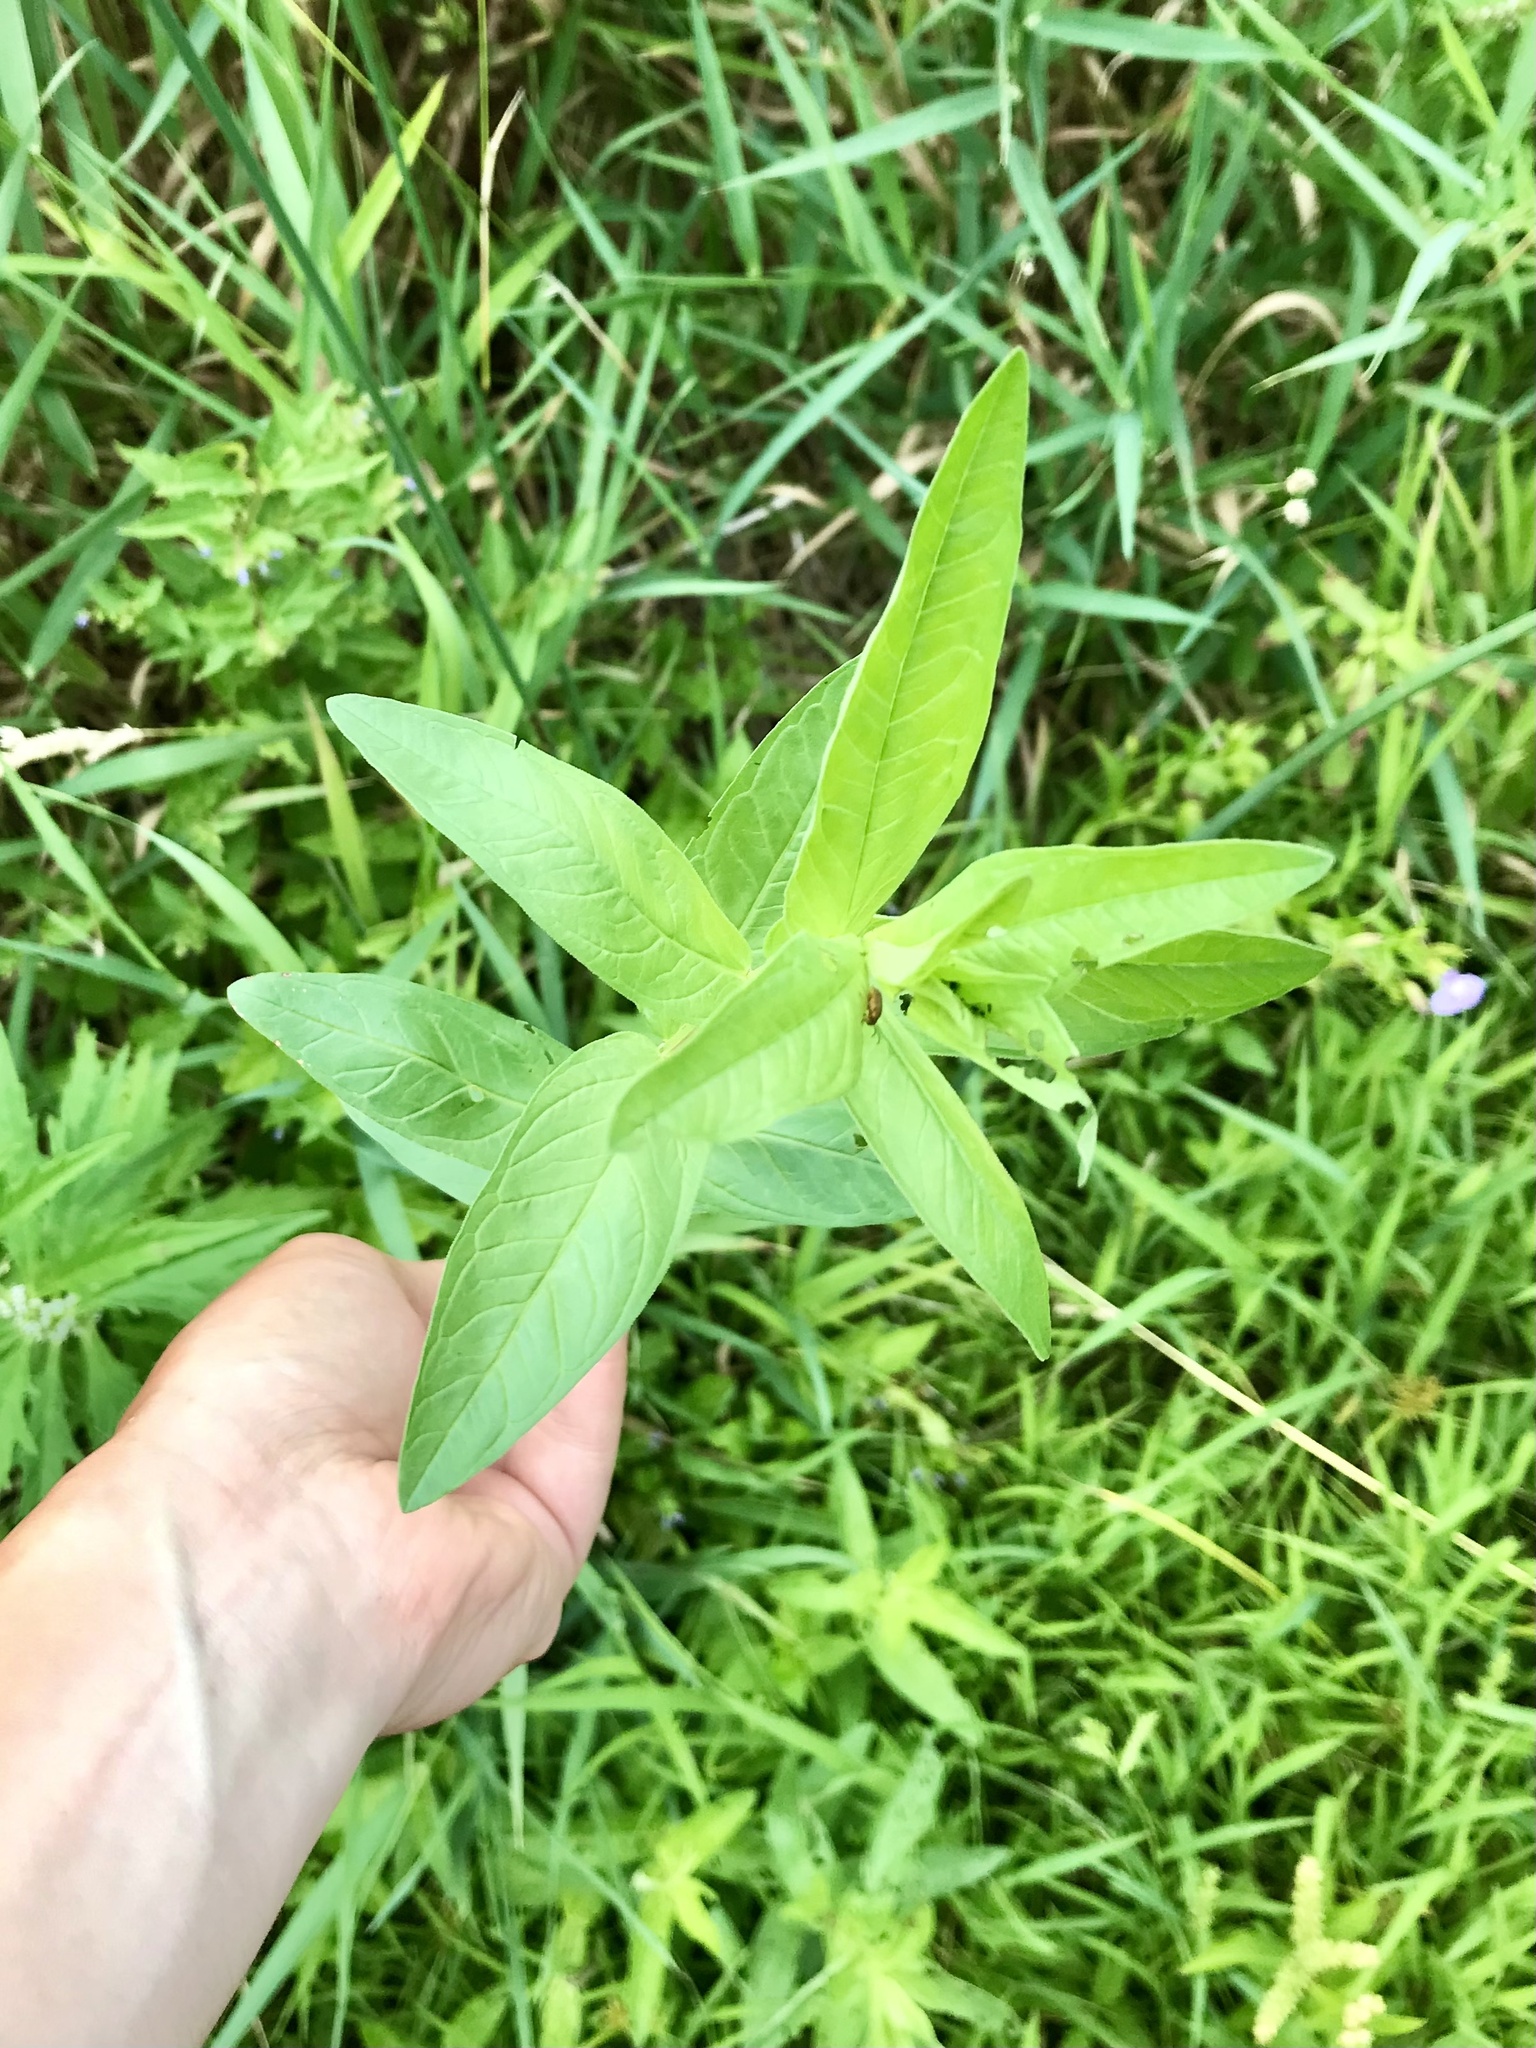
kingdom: Plantae
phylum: Tracheophyta
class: Magnoliopsida
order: Myrtales
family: Lythraceae
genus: Lythrum
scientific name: Lythrum salicaria
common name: Purple loosestrife
